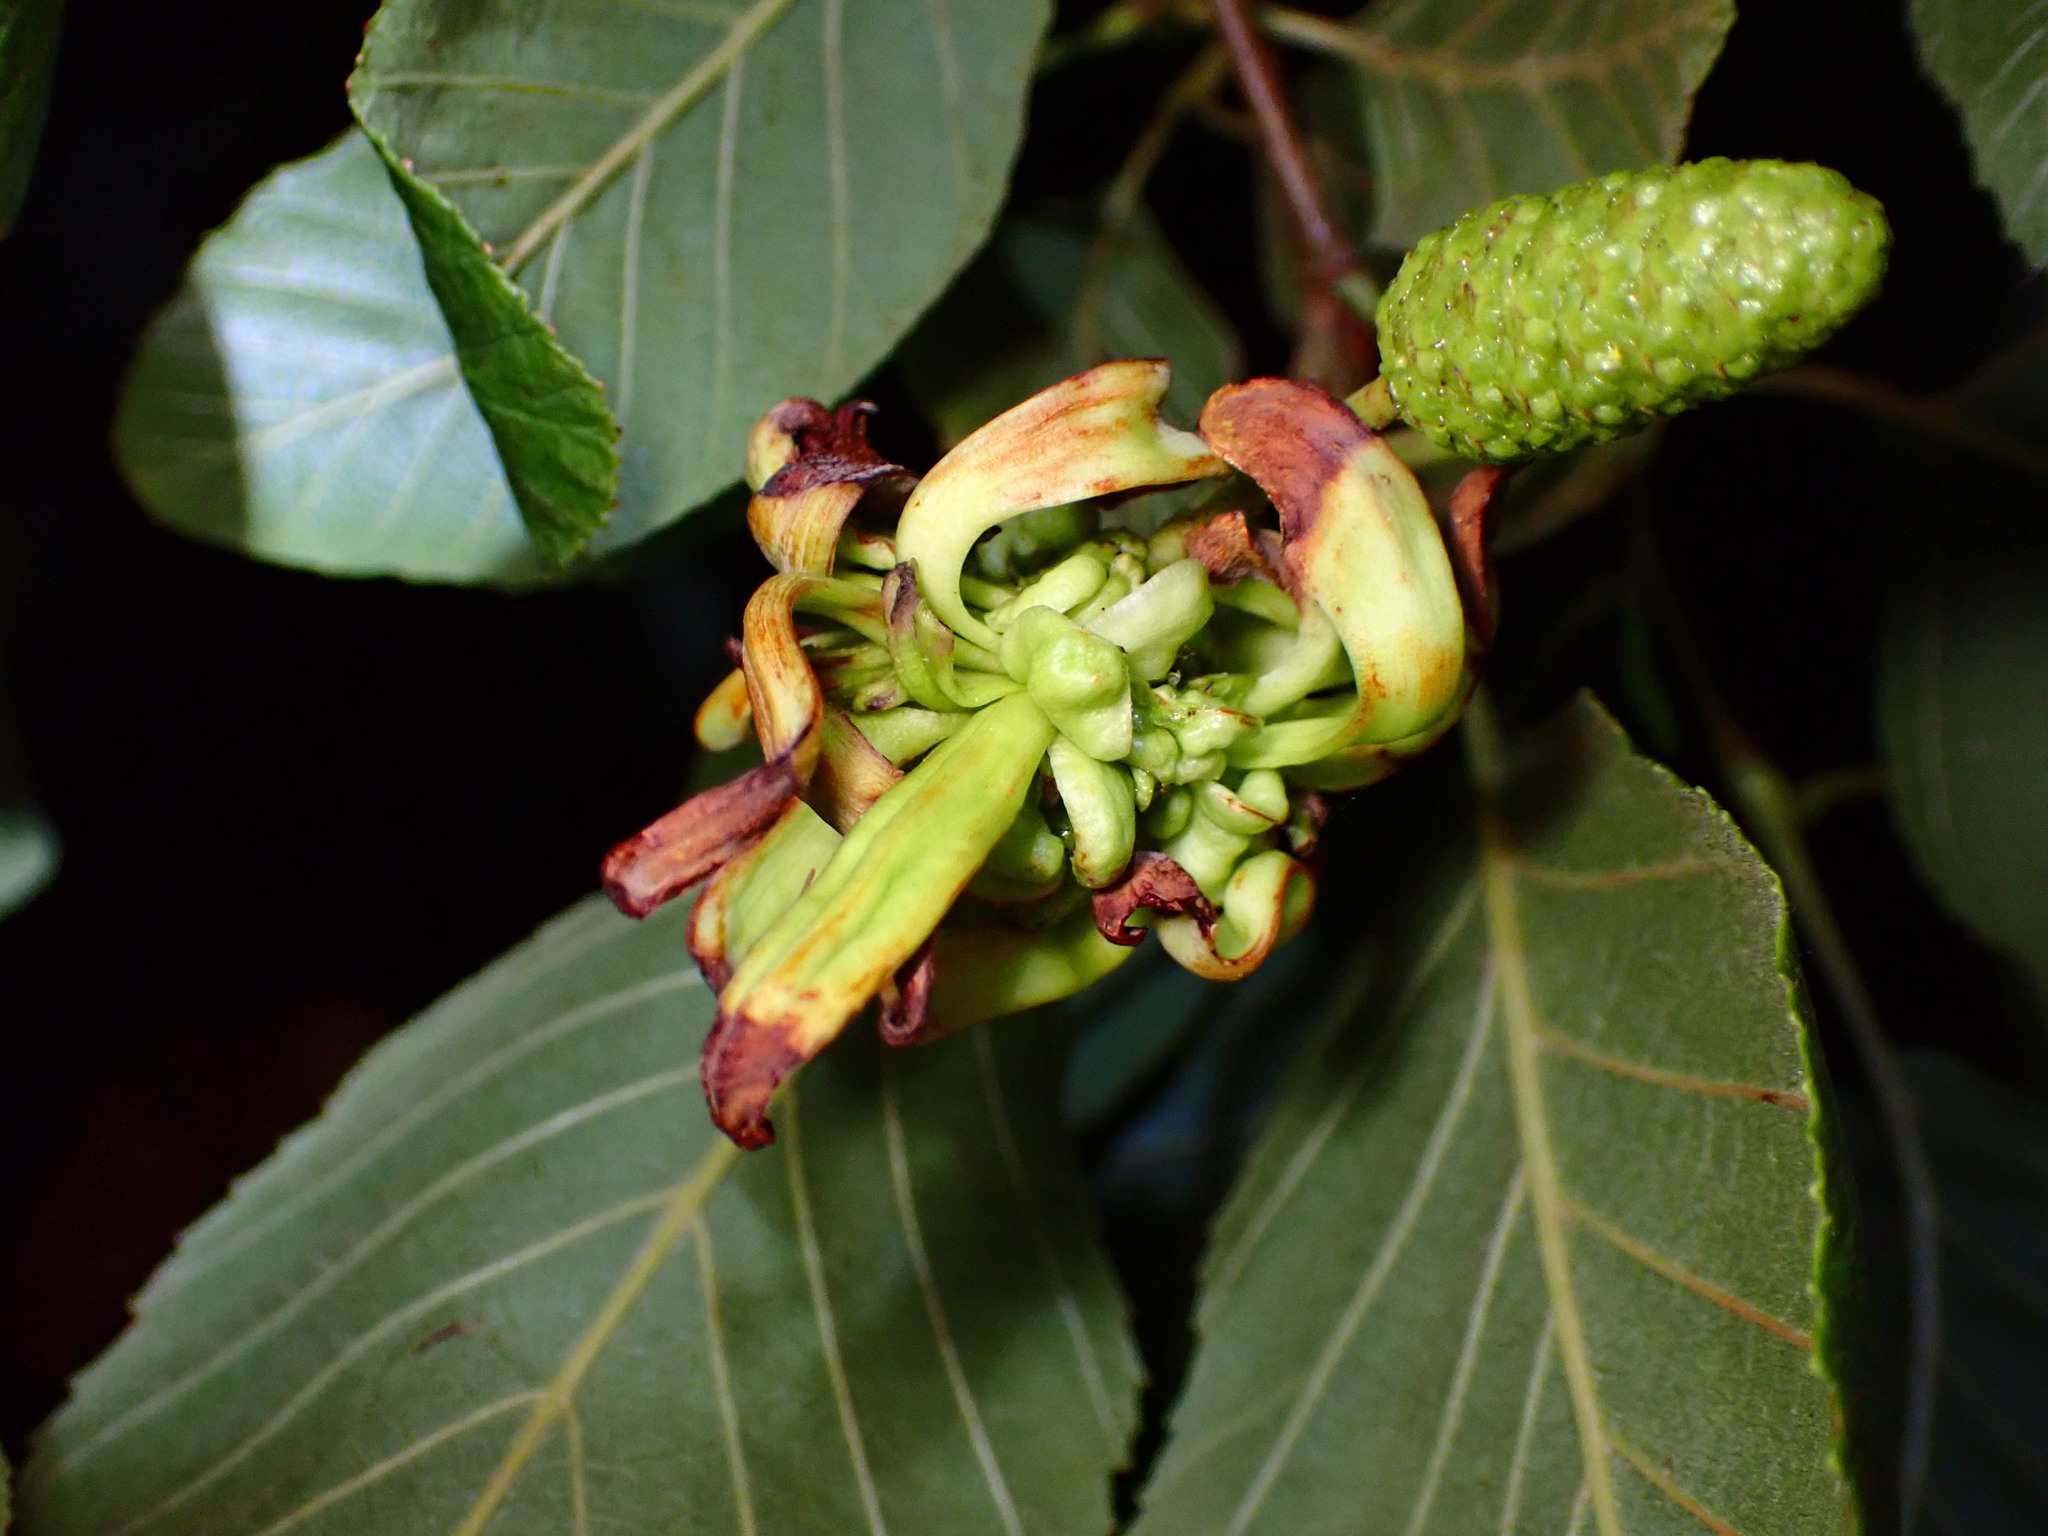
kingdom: Fungi
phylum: Ascomycota
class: Taphrinomycetes
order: Taphrinales
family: Taphrinaceae
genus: Taphrina
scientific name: Taphrina occidentalis
